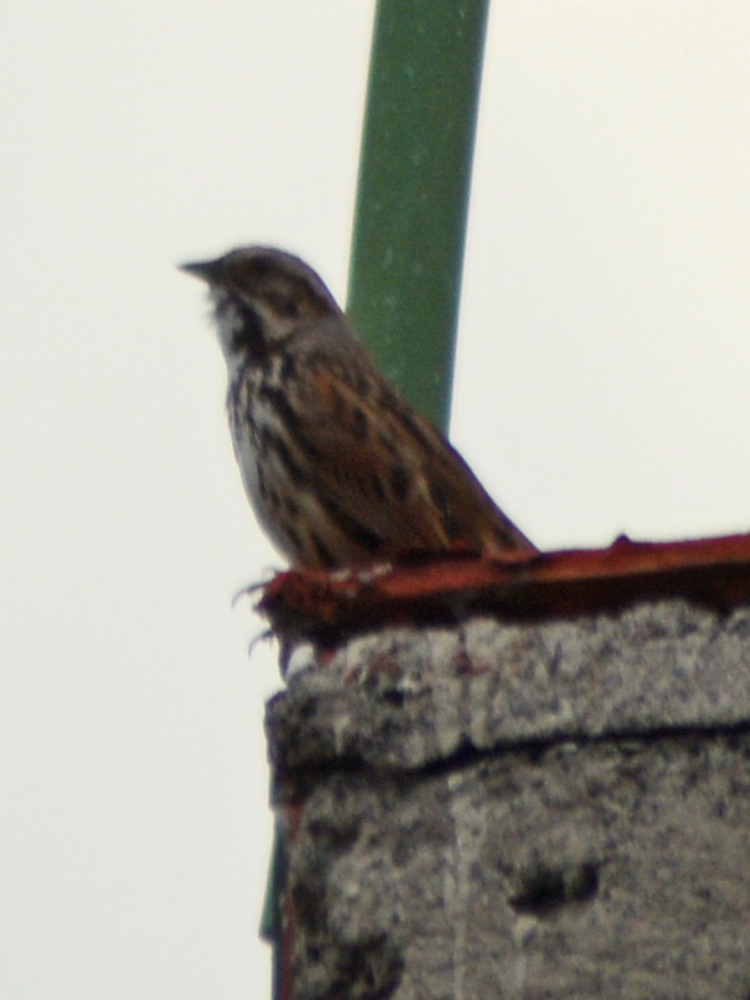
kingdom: Animalia
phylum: Chordata
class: Aves
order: Passeriformes
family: Passerellidae
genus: Melospiza
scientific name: Melospiza melodia
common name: Song sparrow
